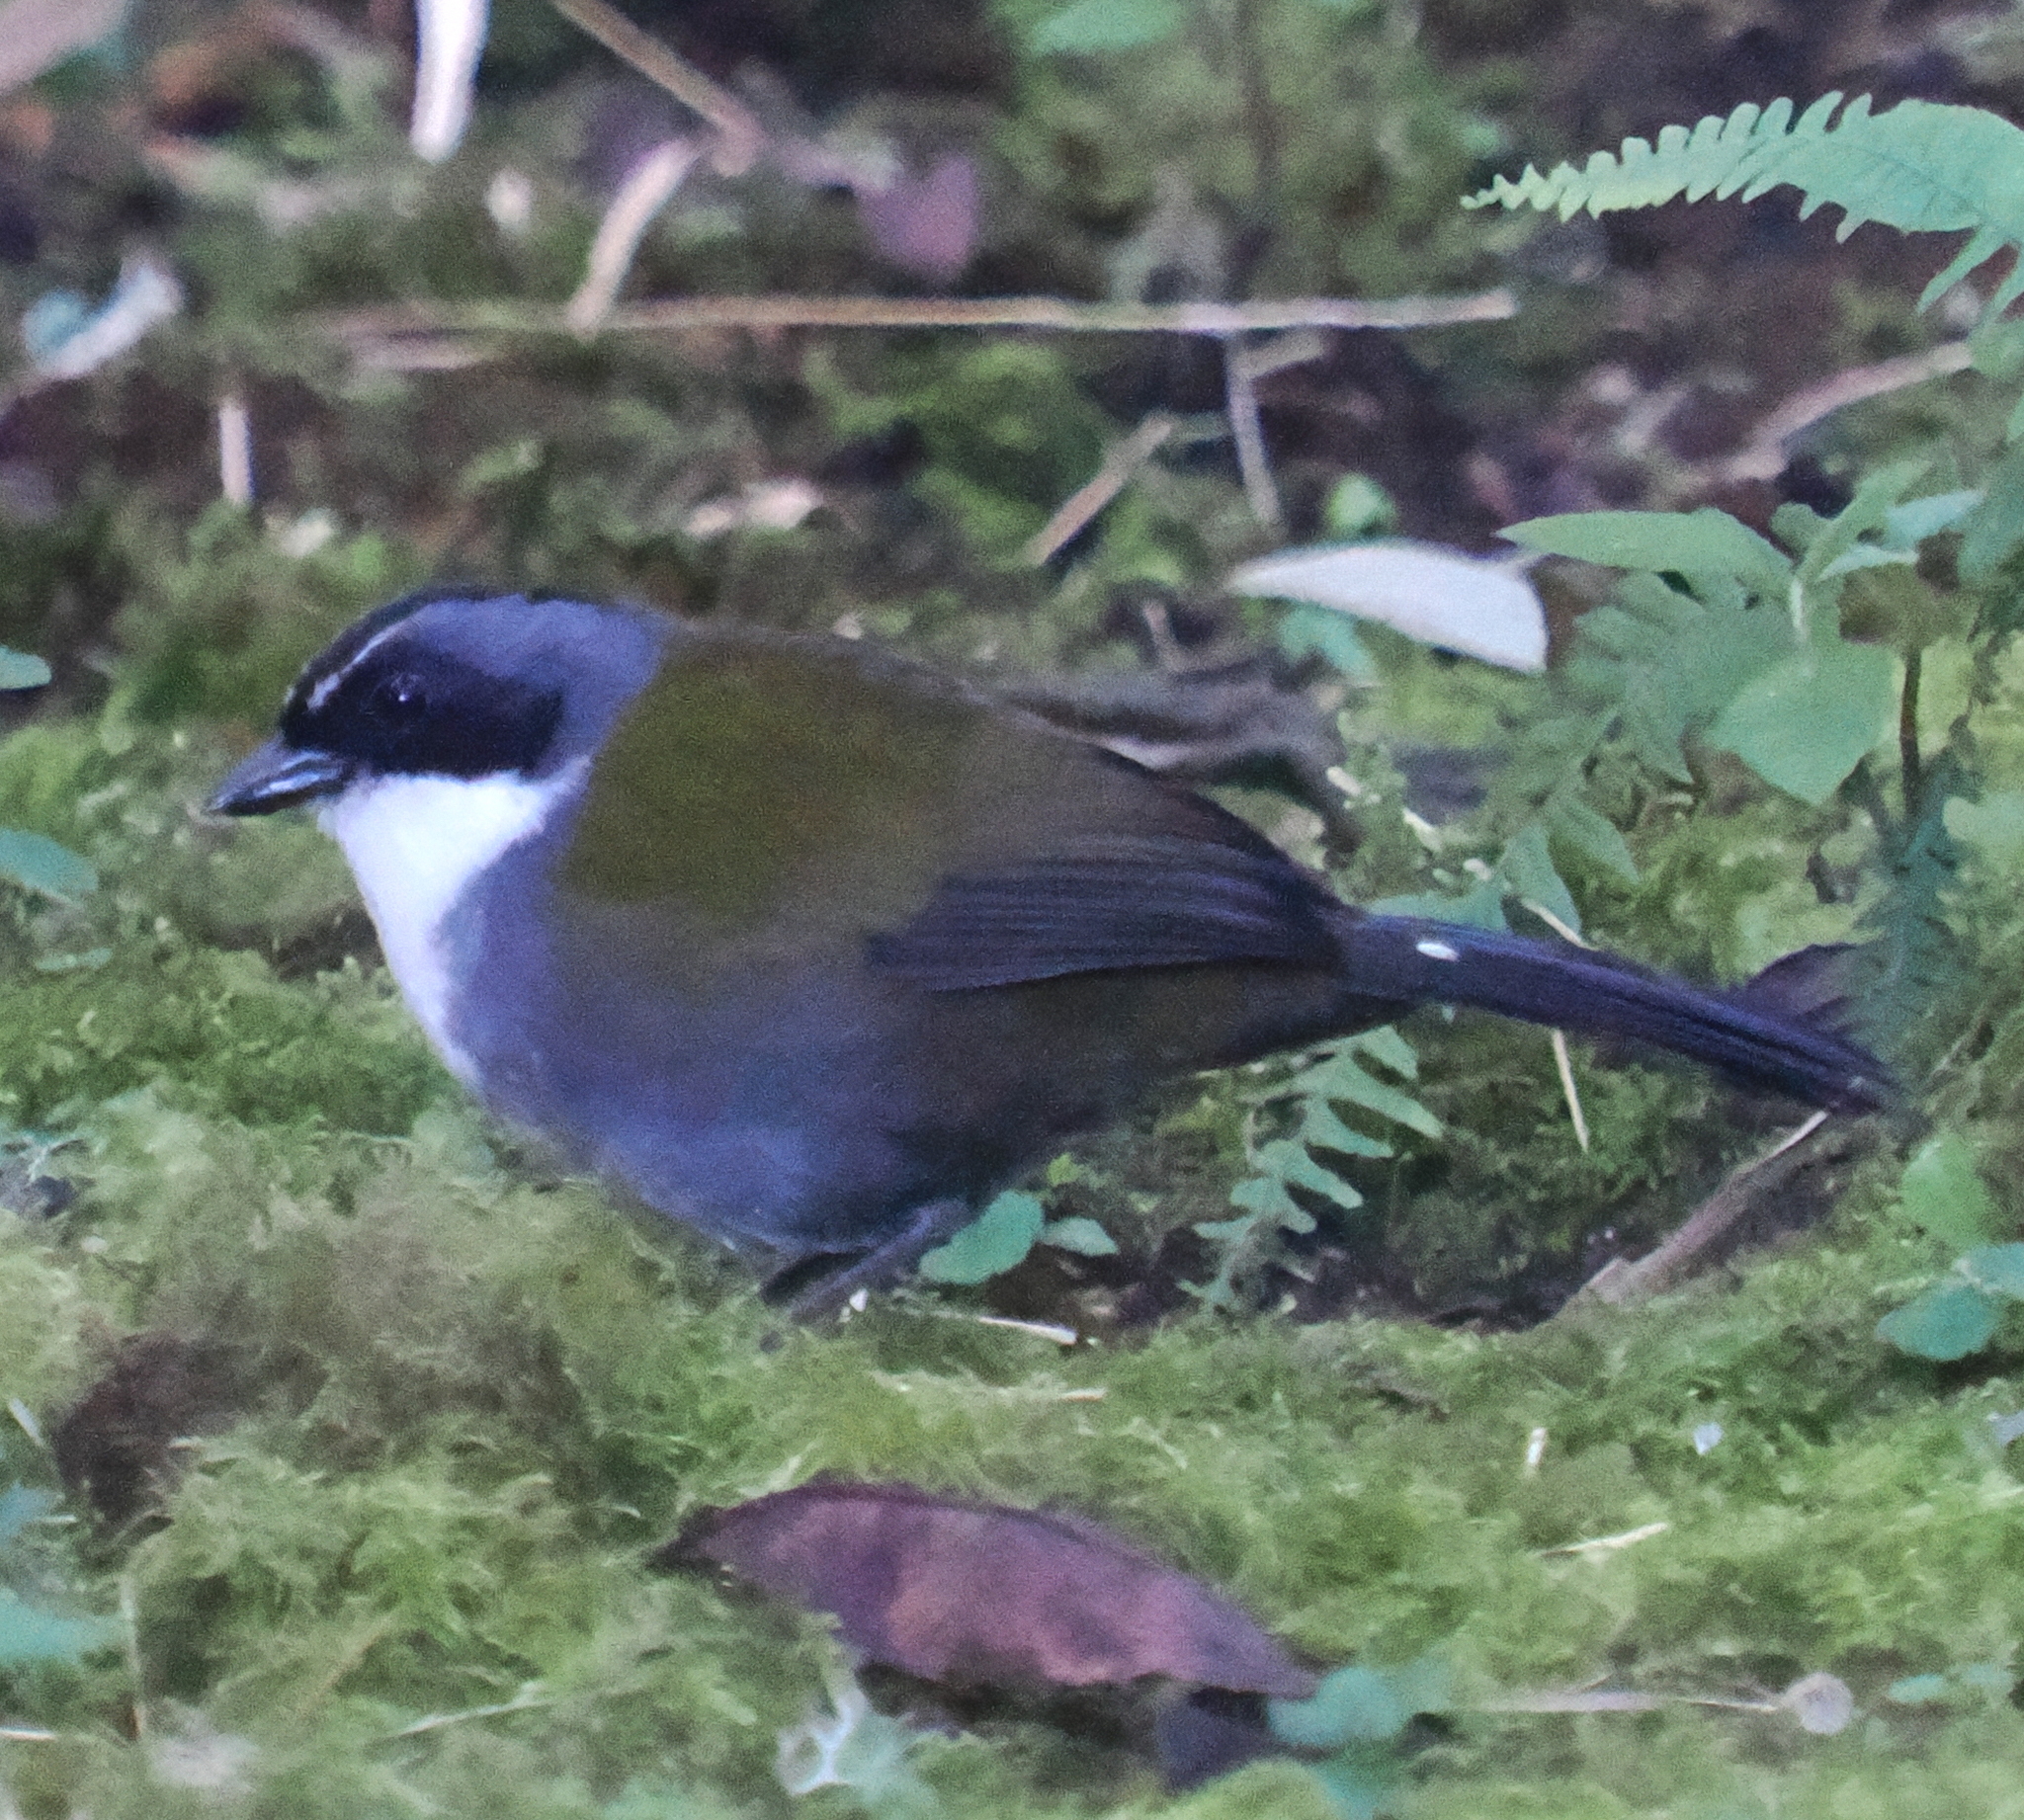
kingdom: Animalia
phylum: Chordata
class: Aves
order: Passeriformes
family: Passerellidae
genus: Arremon
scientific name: Arremon assimilis
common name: Grey-browed brushfinch
